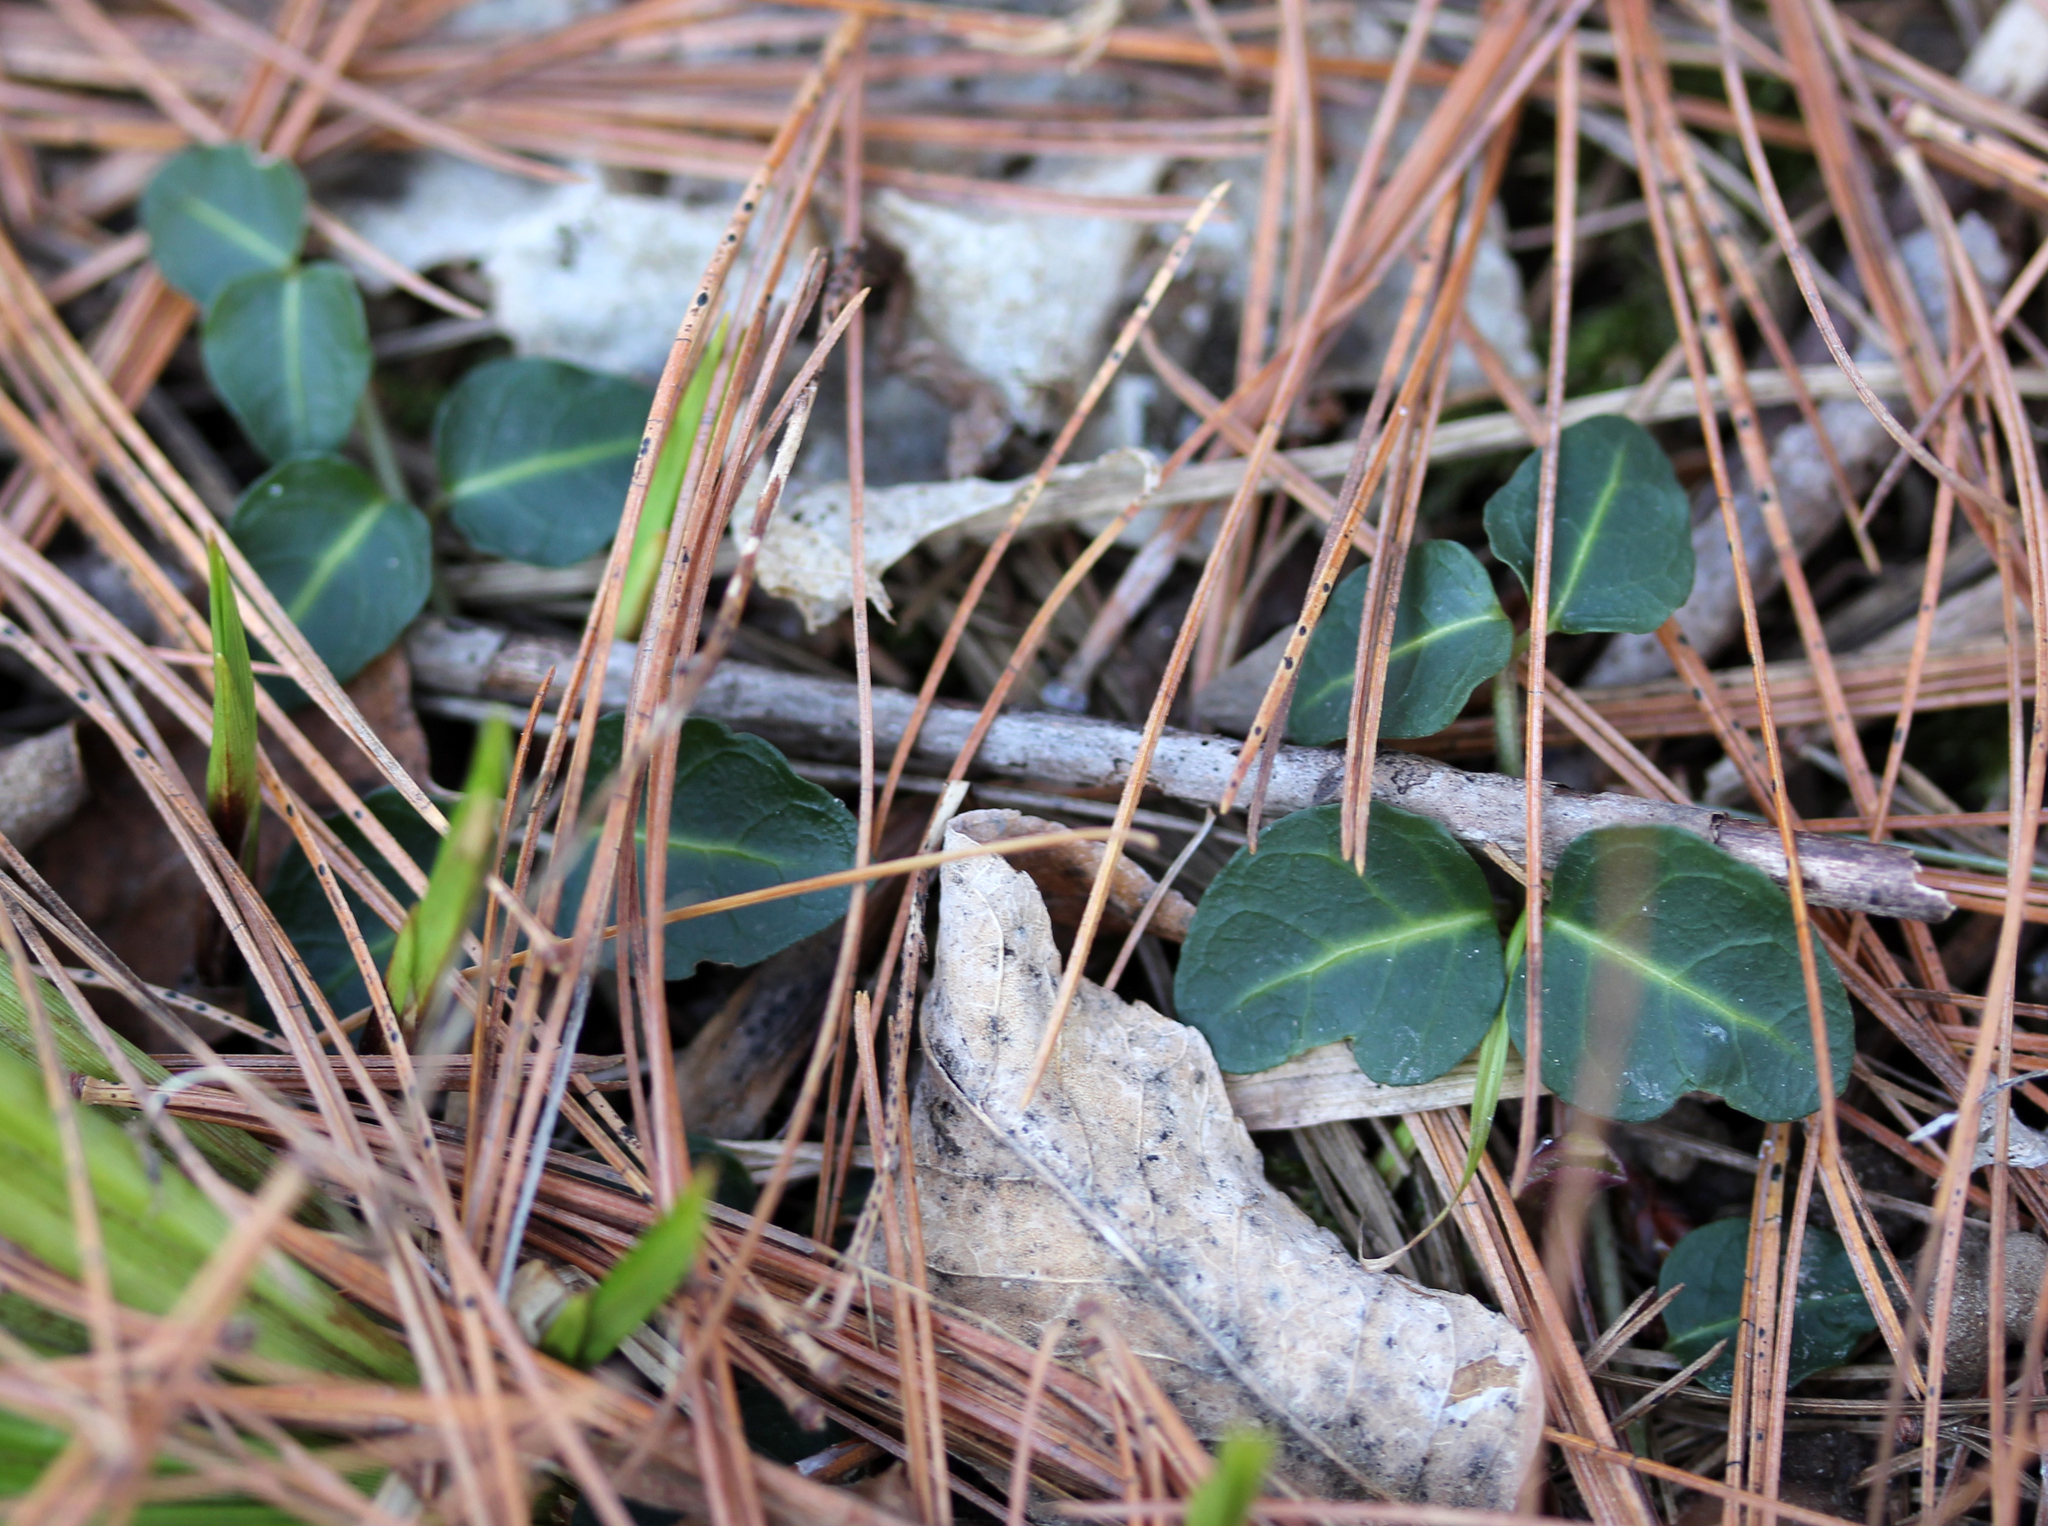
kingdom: Plantae
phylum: Tracheophyta
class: Magnoliopsida
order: Gentianales
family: Rubiaceae
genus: Mitchella
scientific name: Mitchella repens
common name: Partridge-berry
